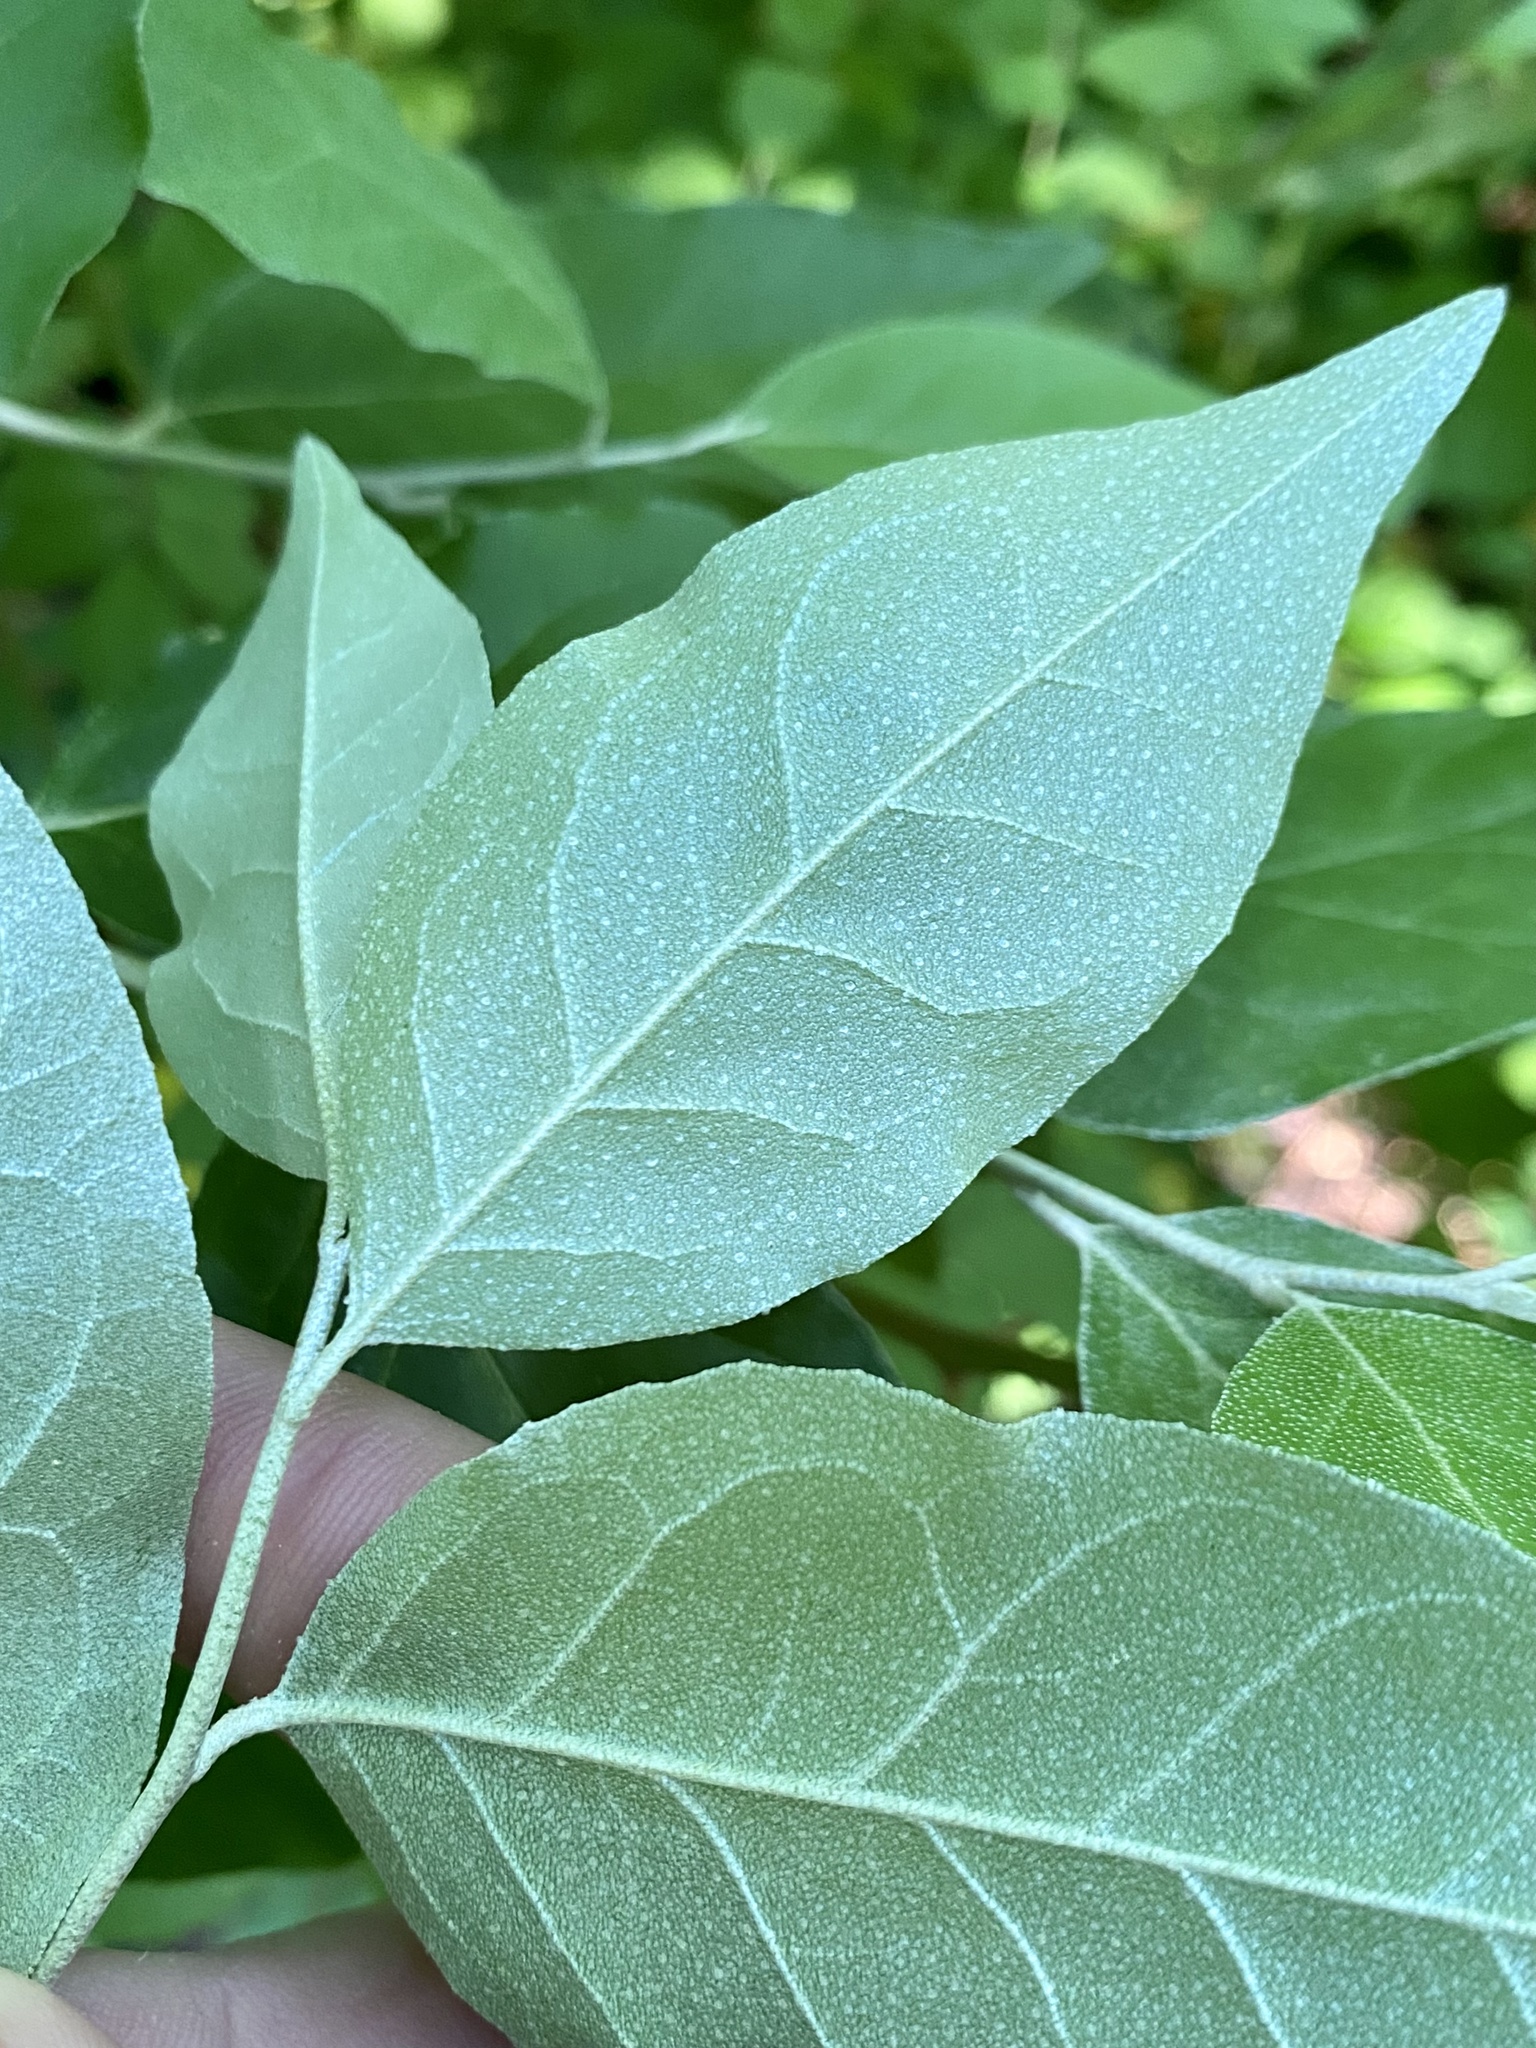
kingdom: Plantae
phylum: Tracheophyta
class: Magnoliopsida
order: Rosales
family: Elaeagnaceae
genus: Elaeagnus
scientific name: Elaeagnus umbellata
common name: Autumn olive
